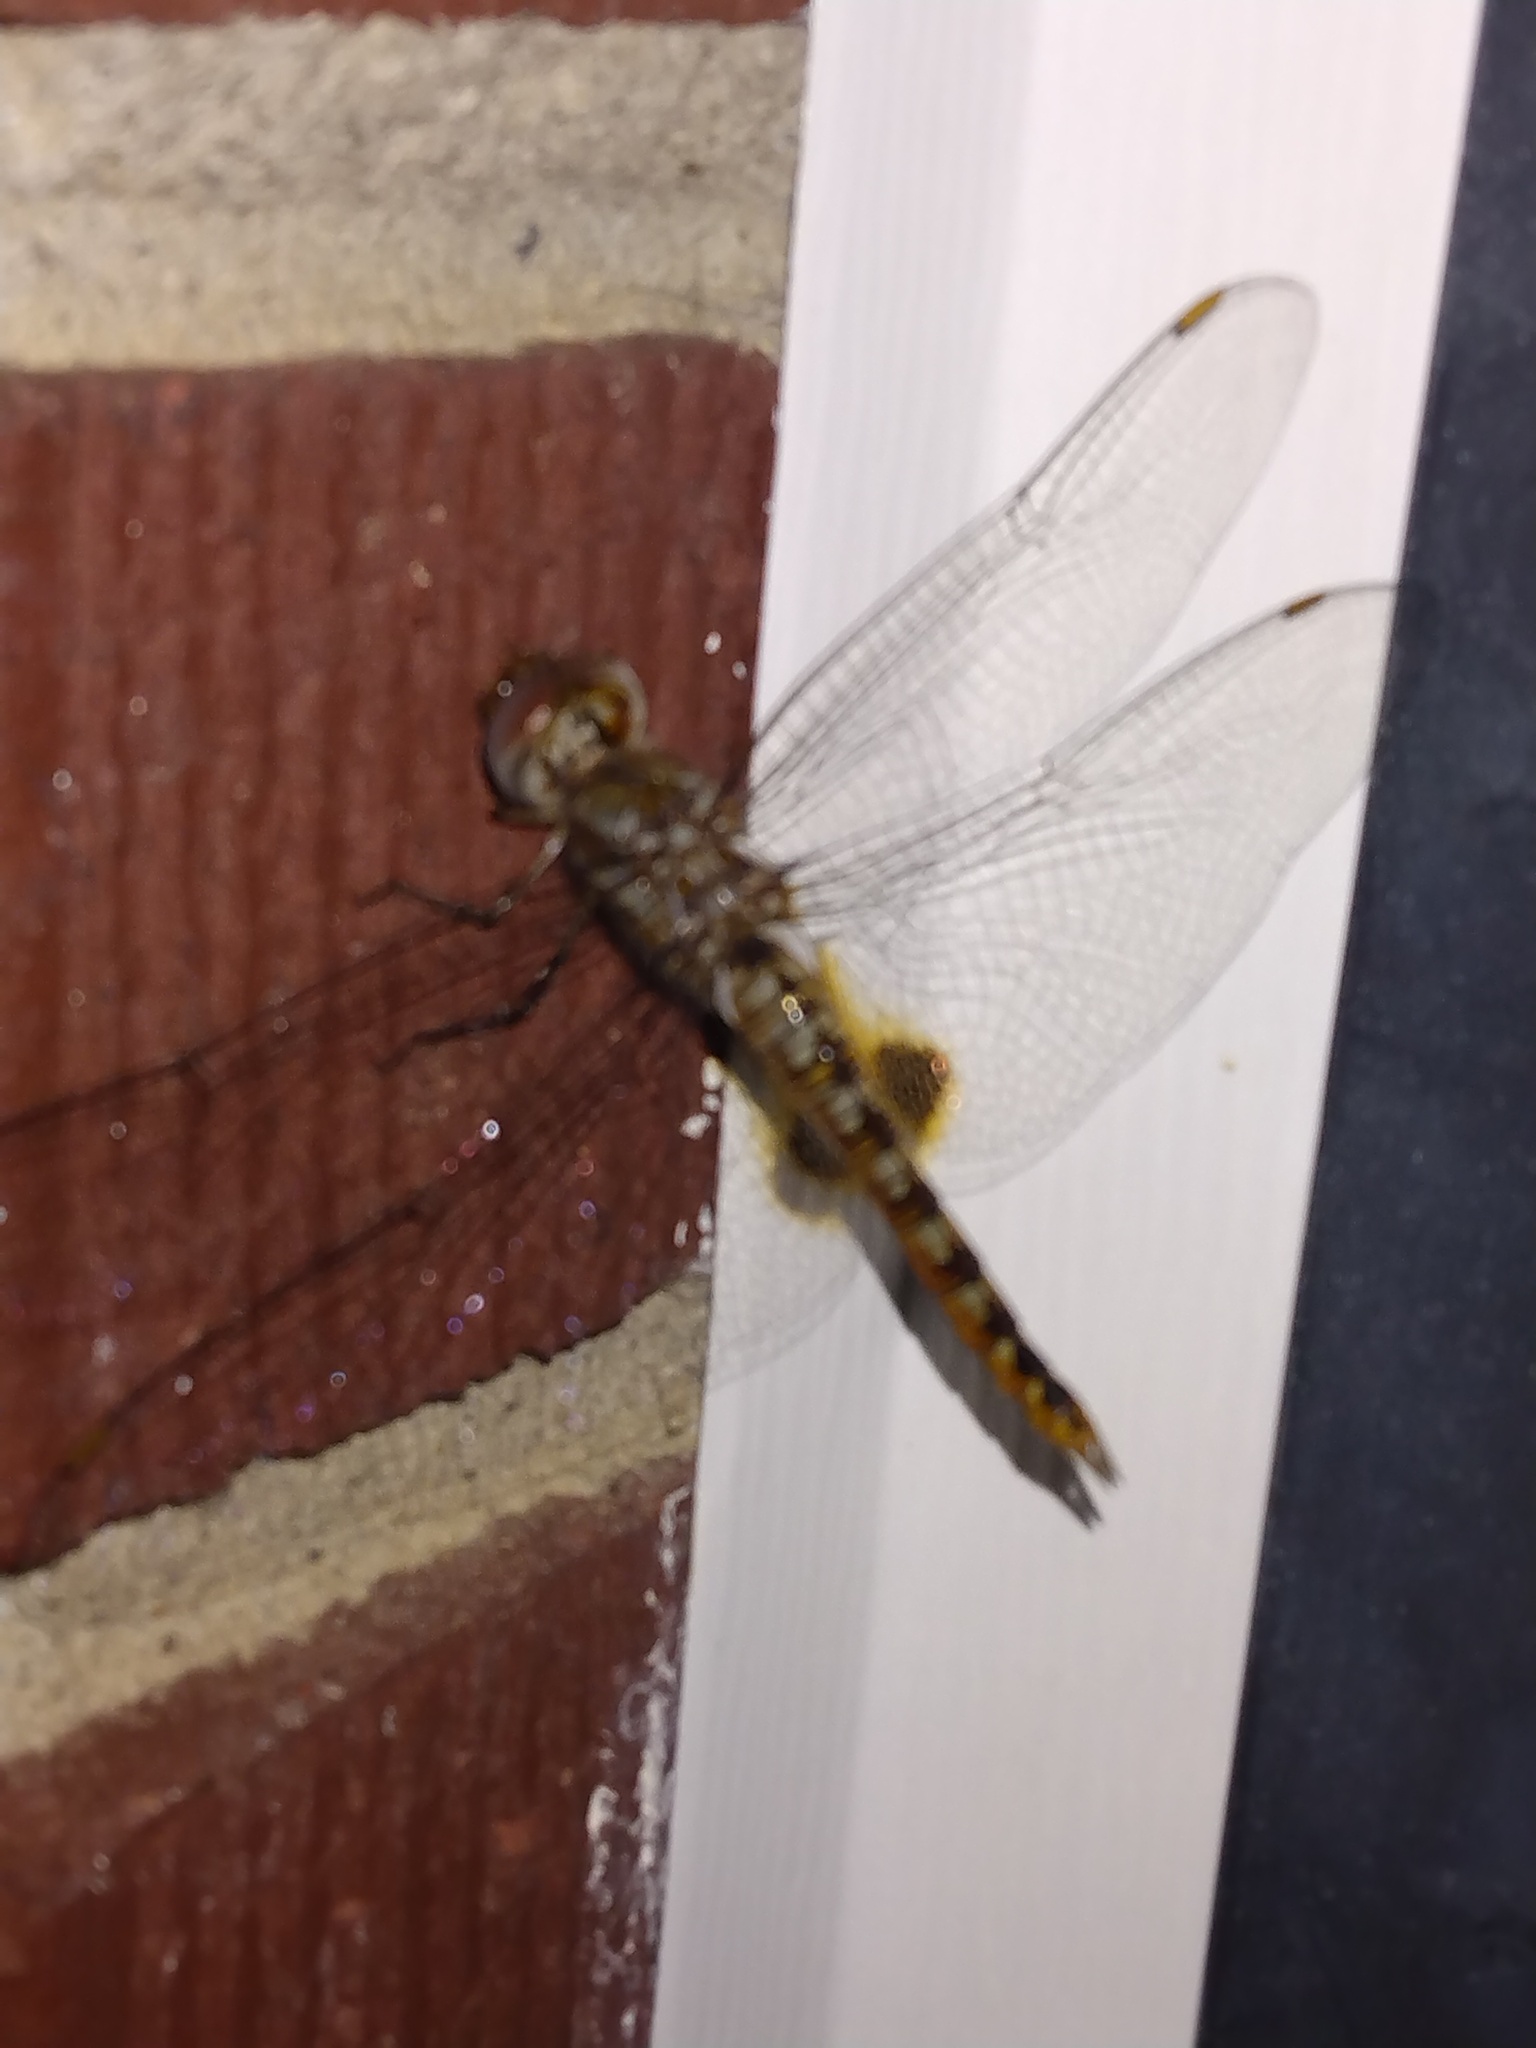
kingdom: Animalia
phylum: Arthropoda
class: Insecta
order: Odonata
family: Libellulidae
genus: Pantala
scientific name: Pantala hymenaea
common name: Spot-winged glider
